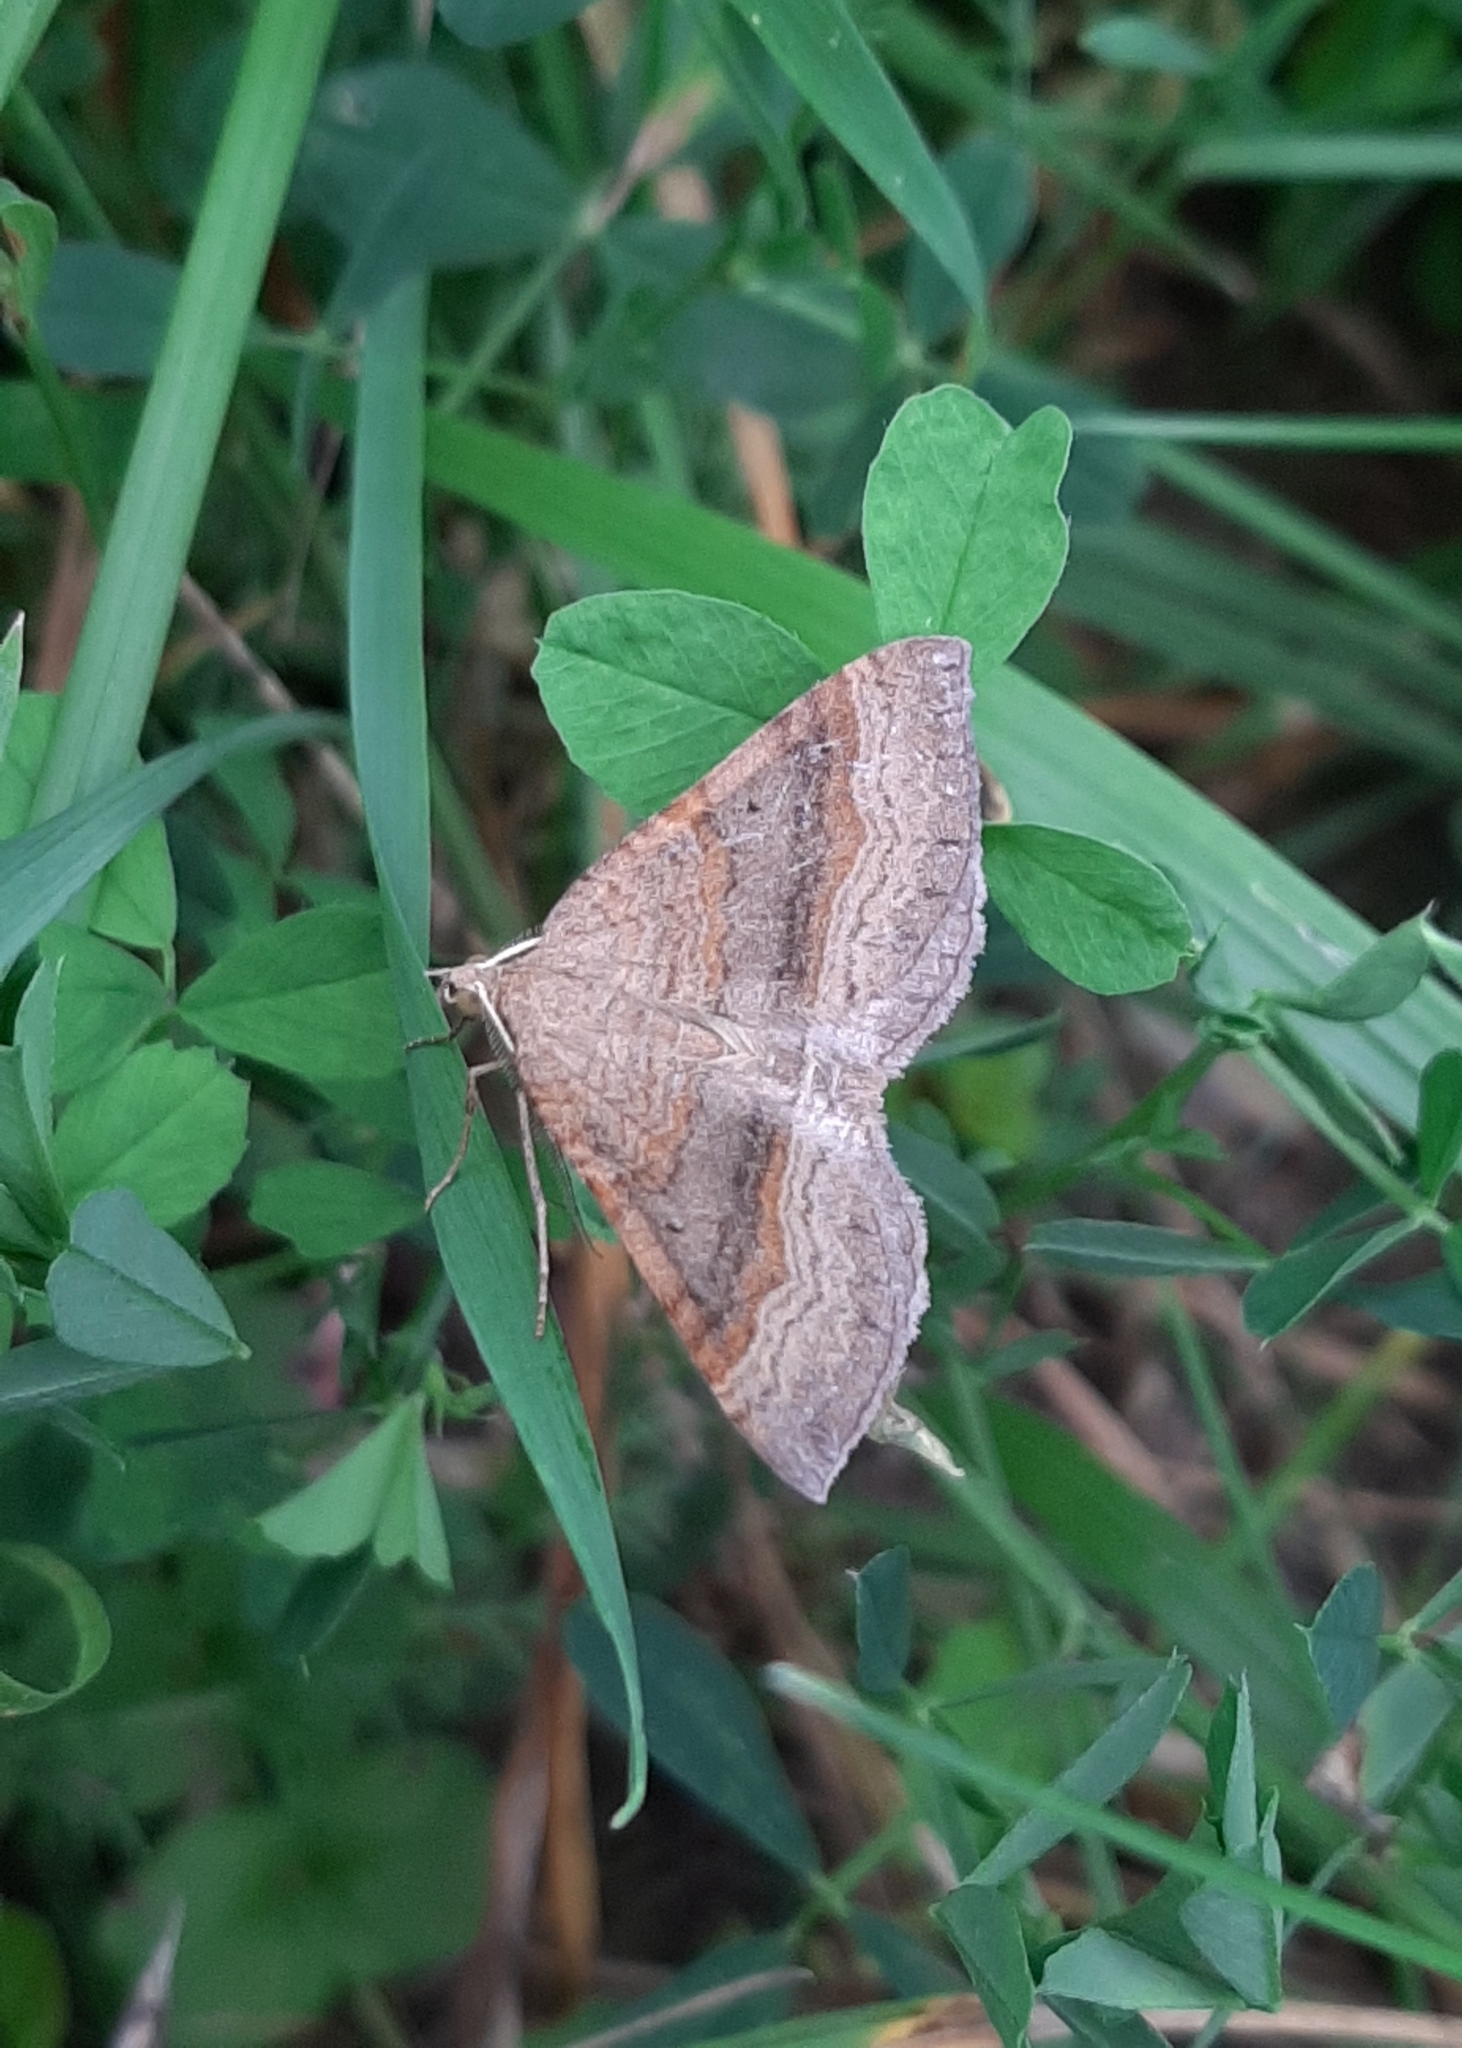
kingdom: Animalia
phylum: Arthropoda
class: Insecta
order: Lepidoptera
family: Geometridae
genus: Scotopteryx
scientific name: Scotopteryx chenopodiata
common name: Shaded broad-bar
